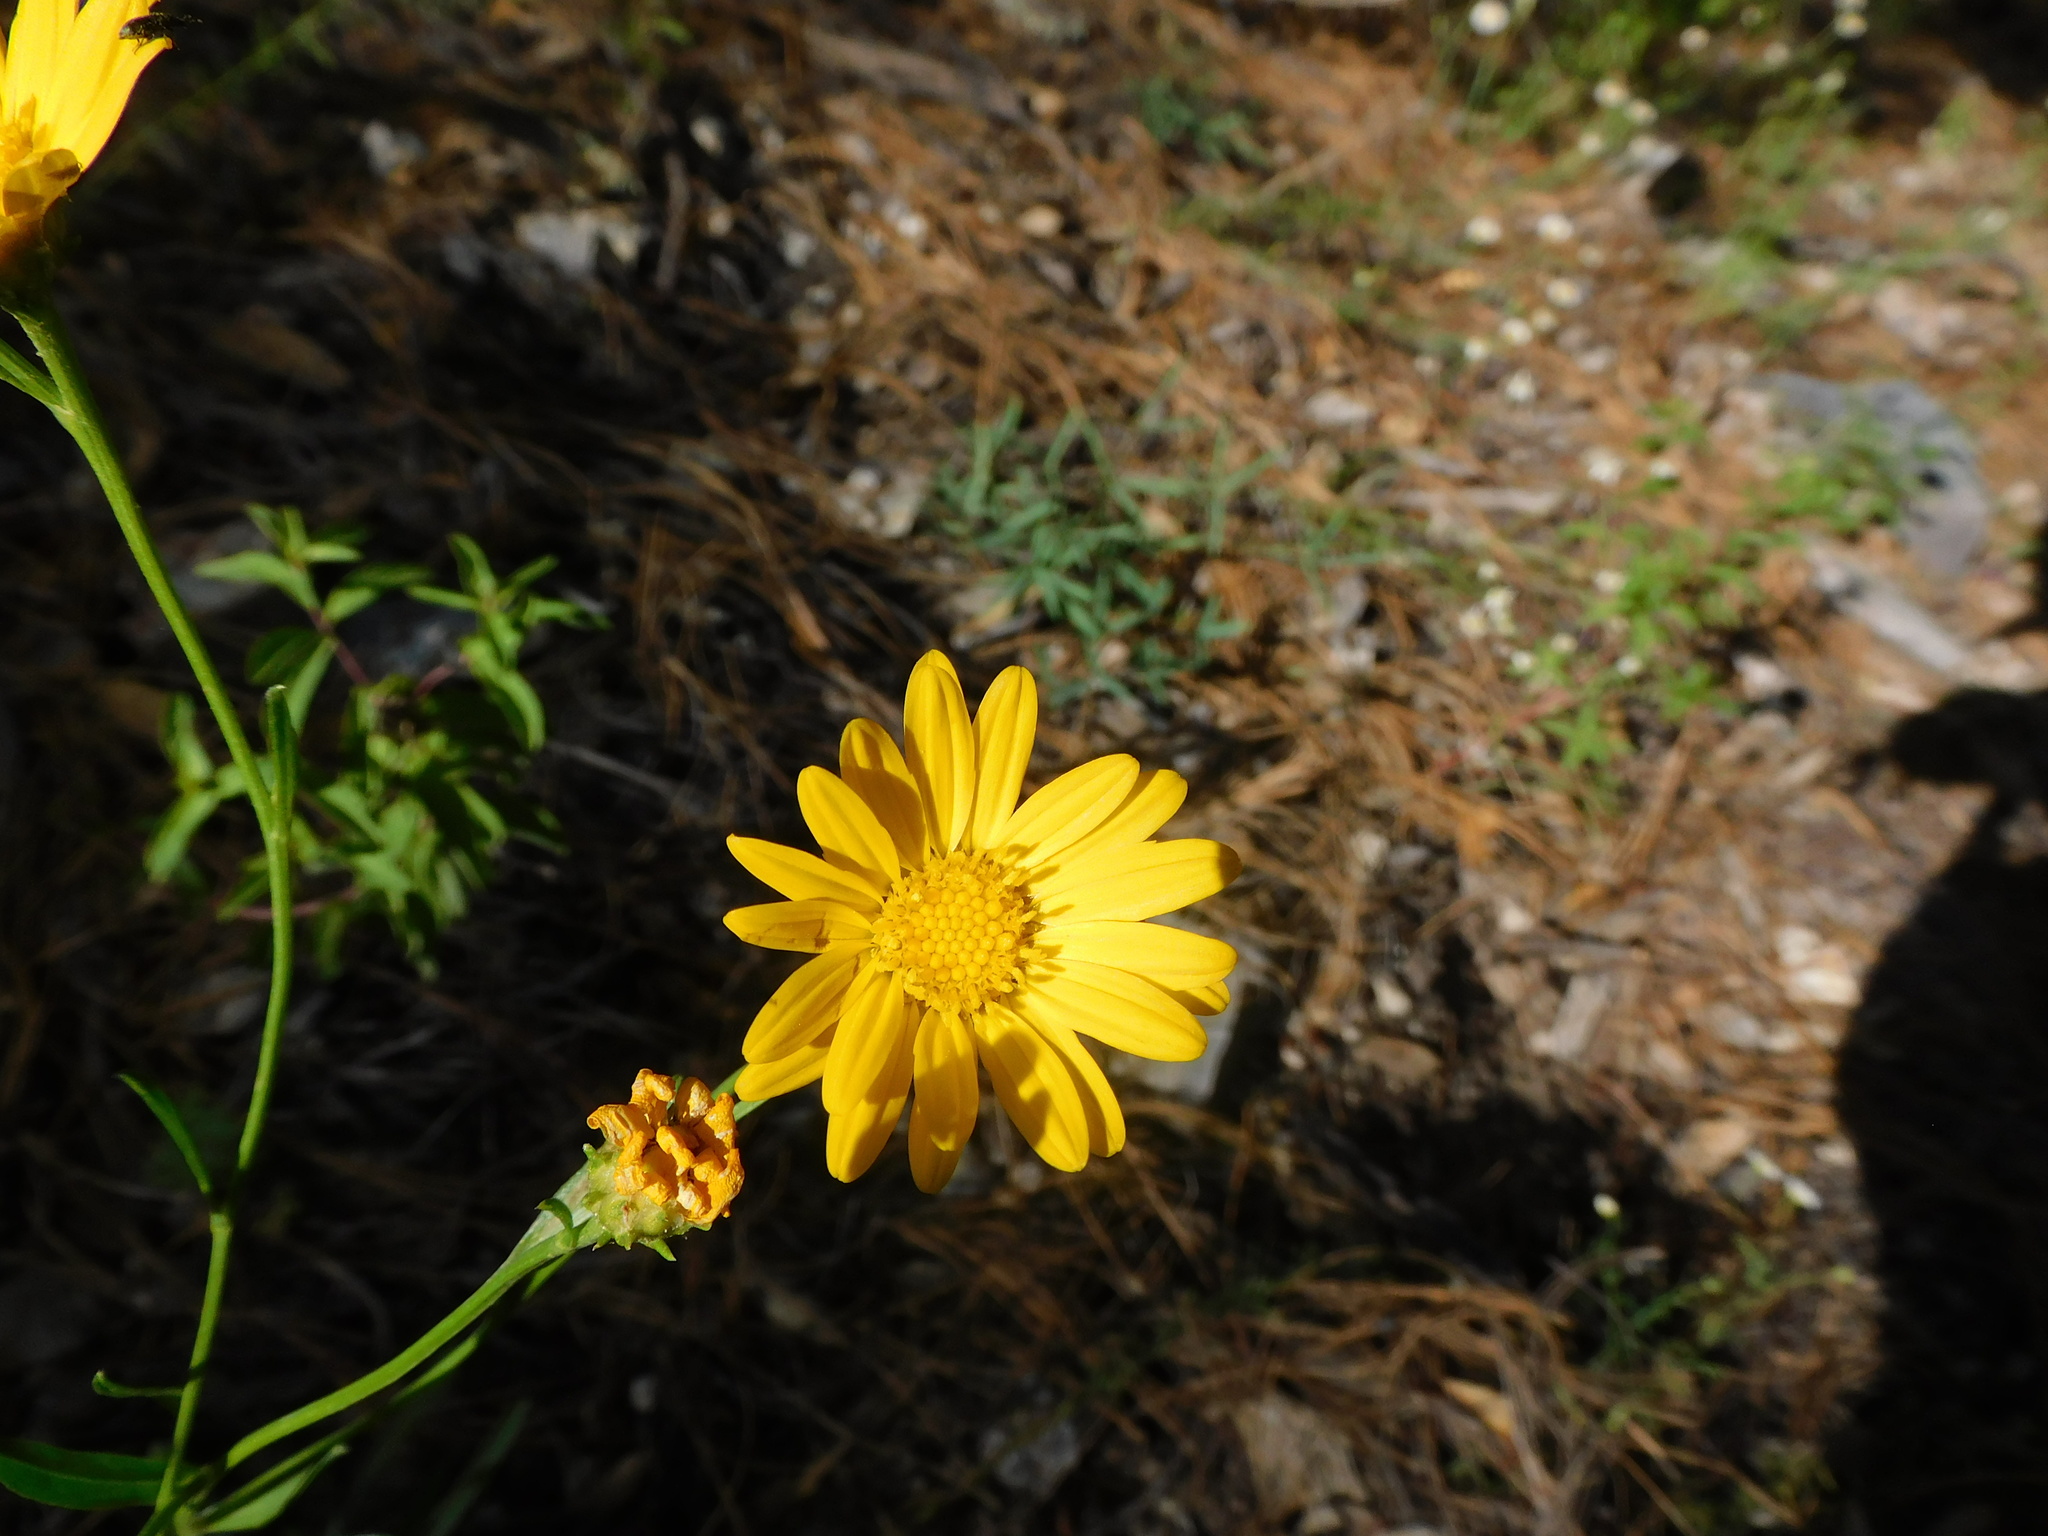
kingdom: Plantae
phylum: Tracheophyta
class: Magnoliopsida
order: Asterales
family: Asteraceae
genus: Gutierrezia
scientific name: Gutierrezia wrightii
